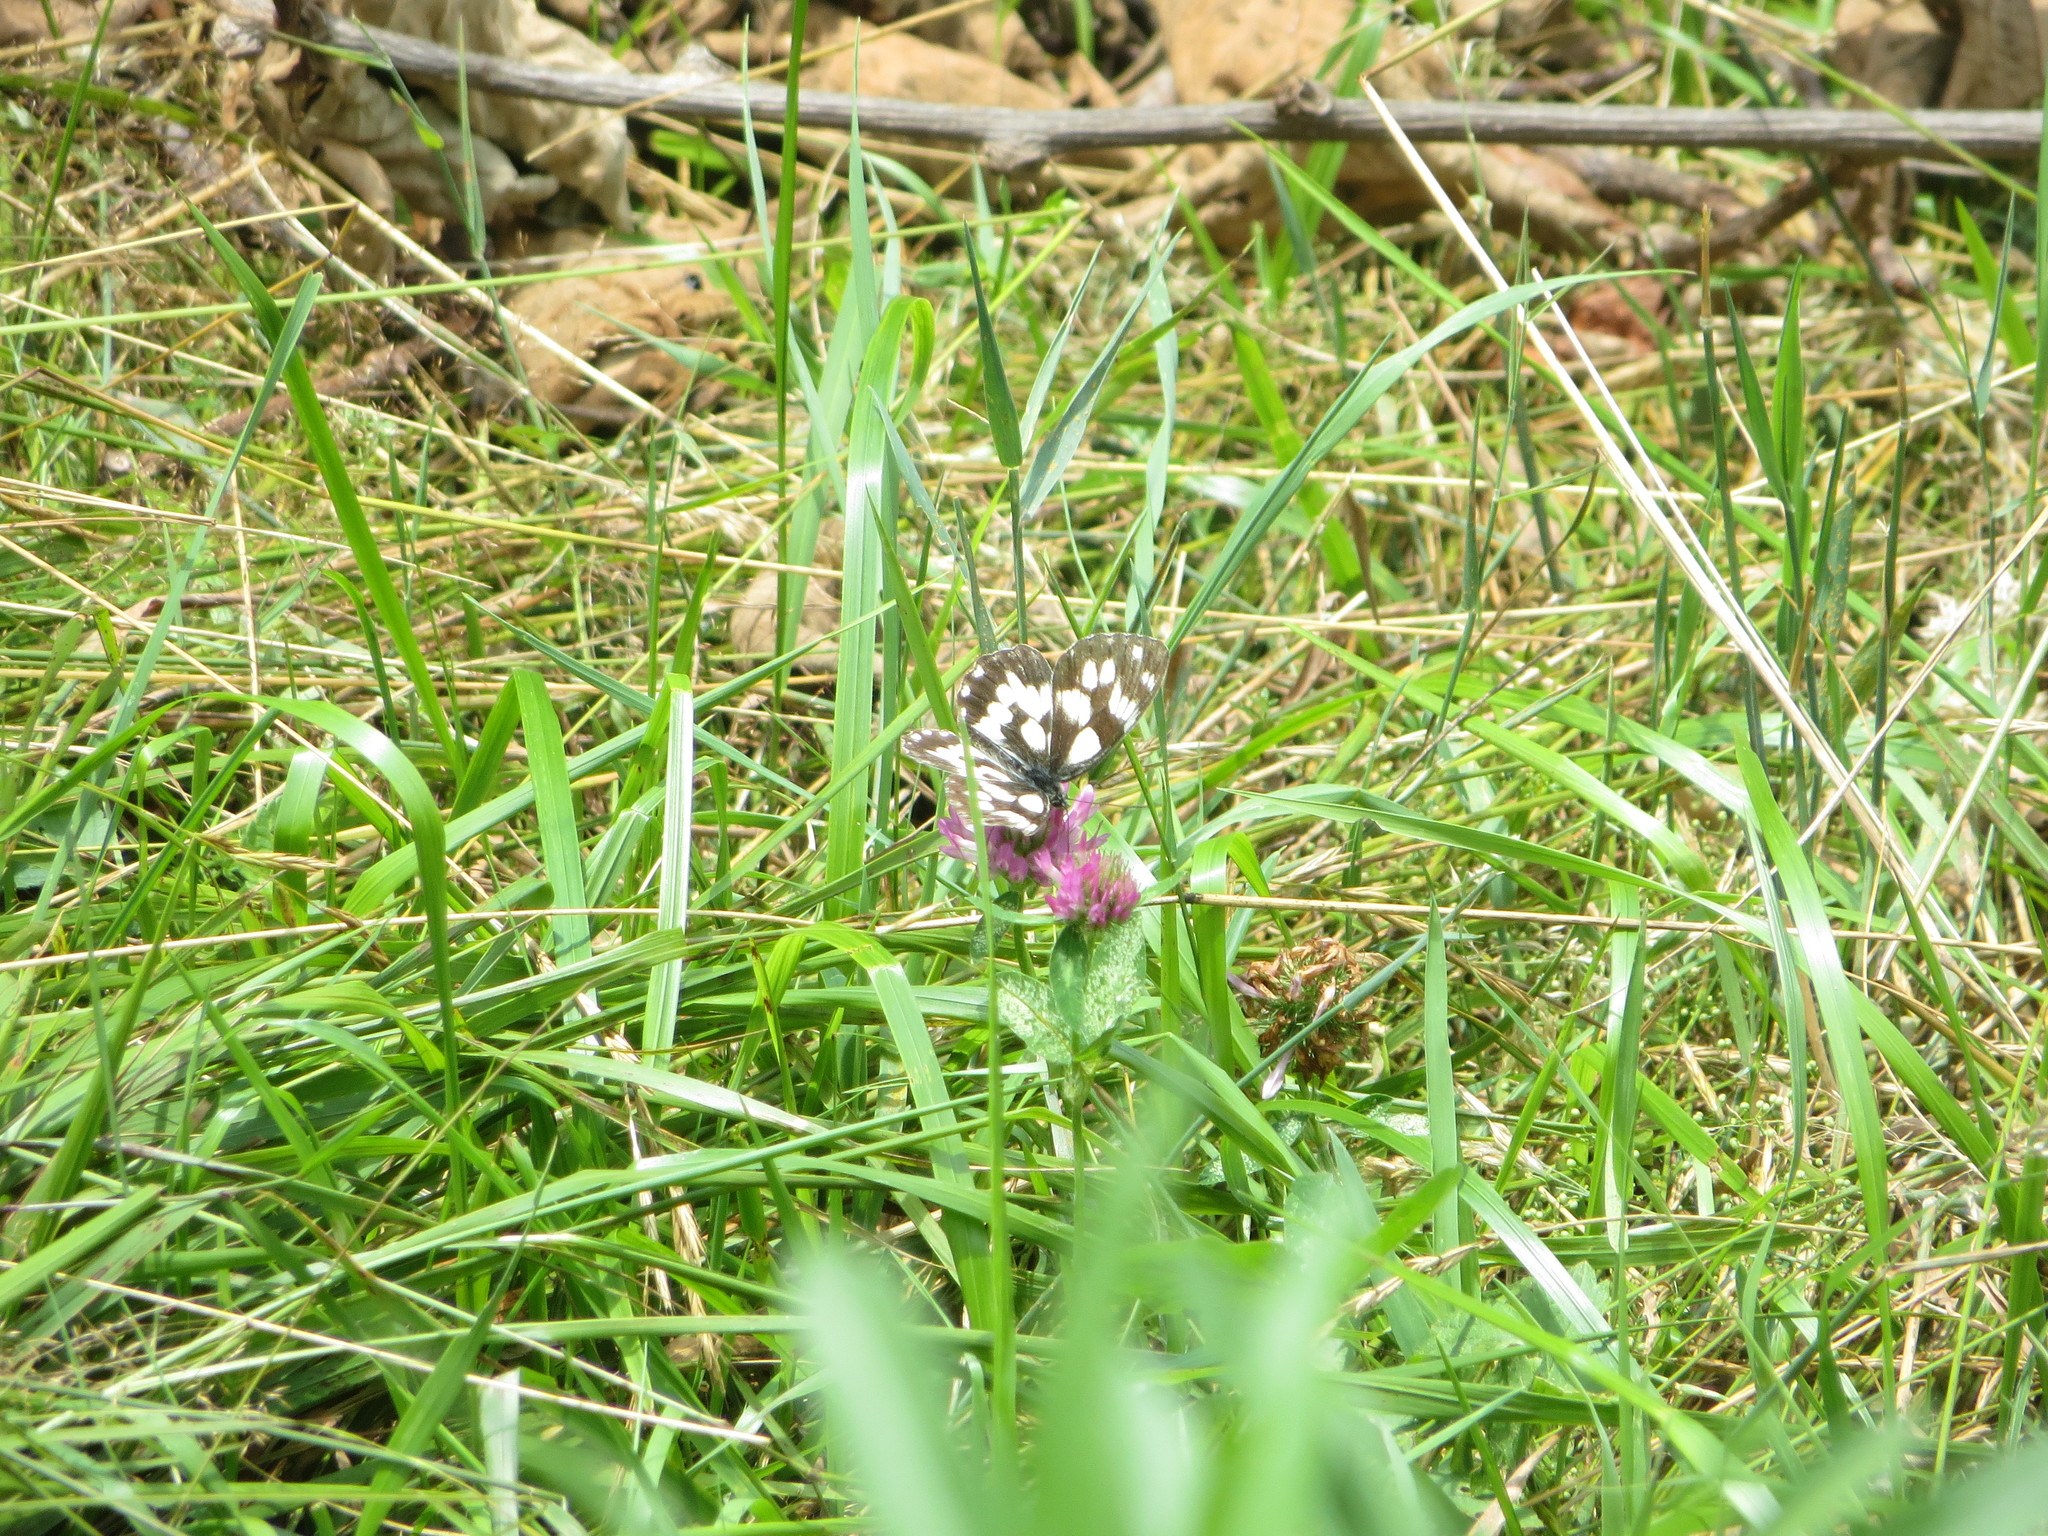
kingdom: Animalia
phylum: Arthropoda
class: Insecta
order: Lepidoptera
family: Nymphalidae
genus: Melanargia
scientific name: Melanargia galathea
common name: Marbled white
